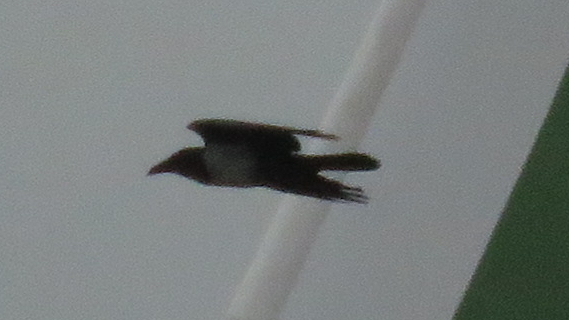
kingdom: Animalia
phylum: Chordata
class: Aves
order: Passeriformes
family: Corvidae
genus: Corvus
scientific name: Corvus albus
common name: Pied crow
